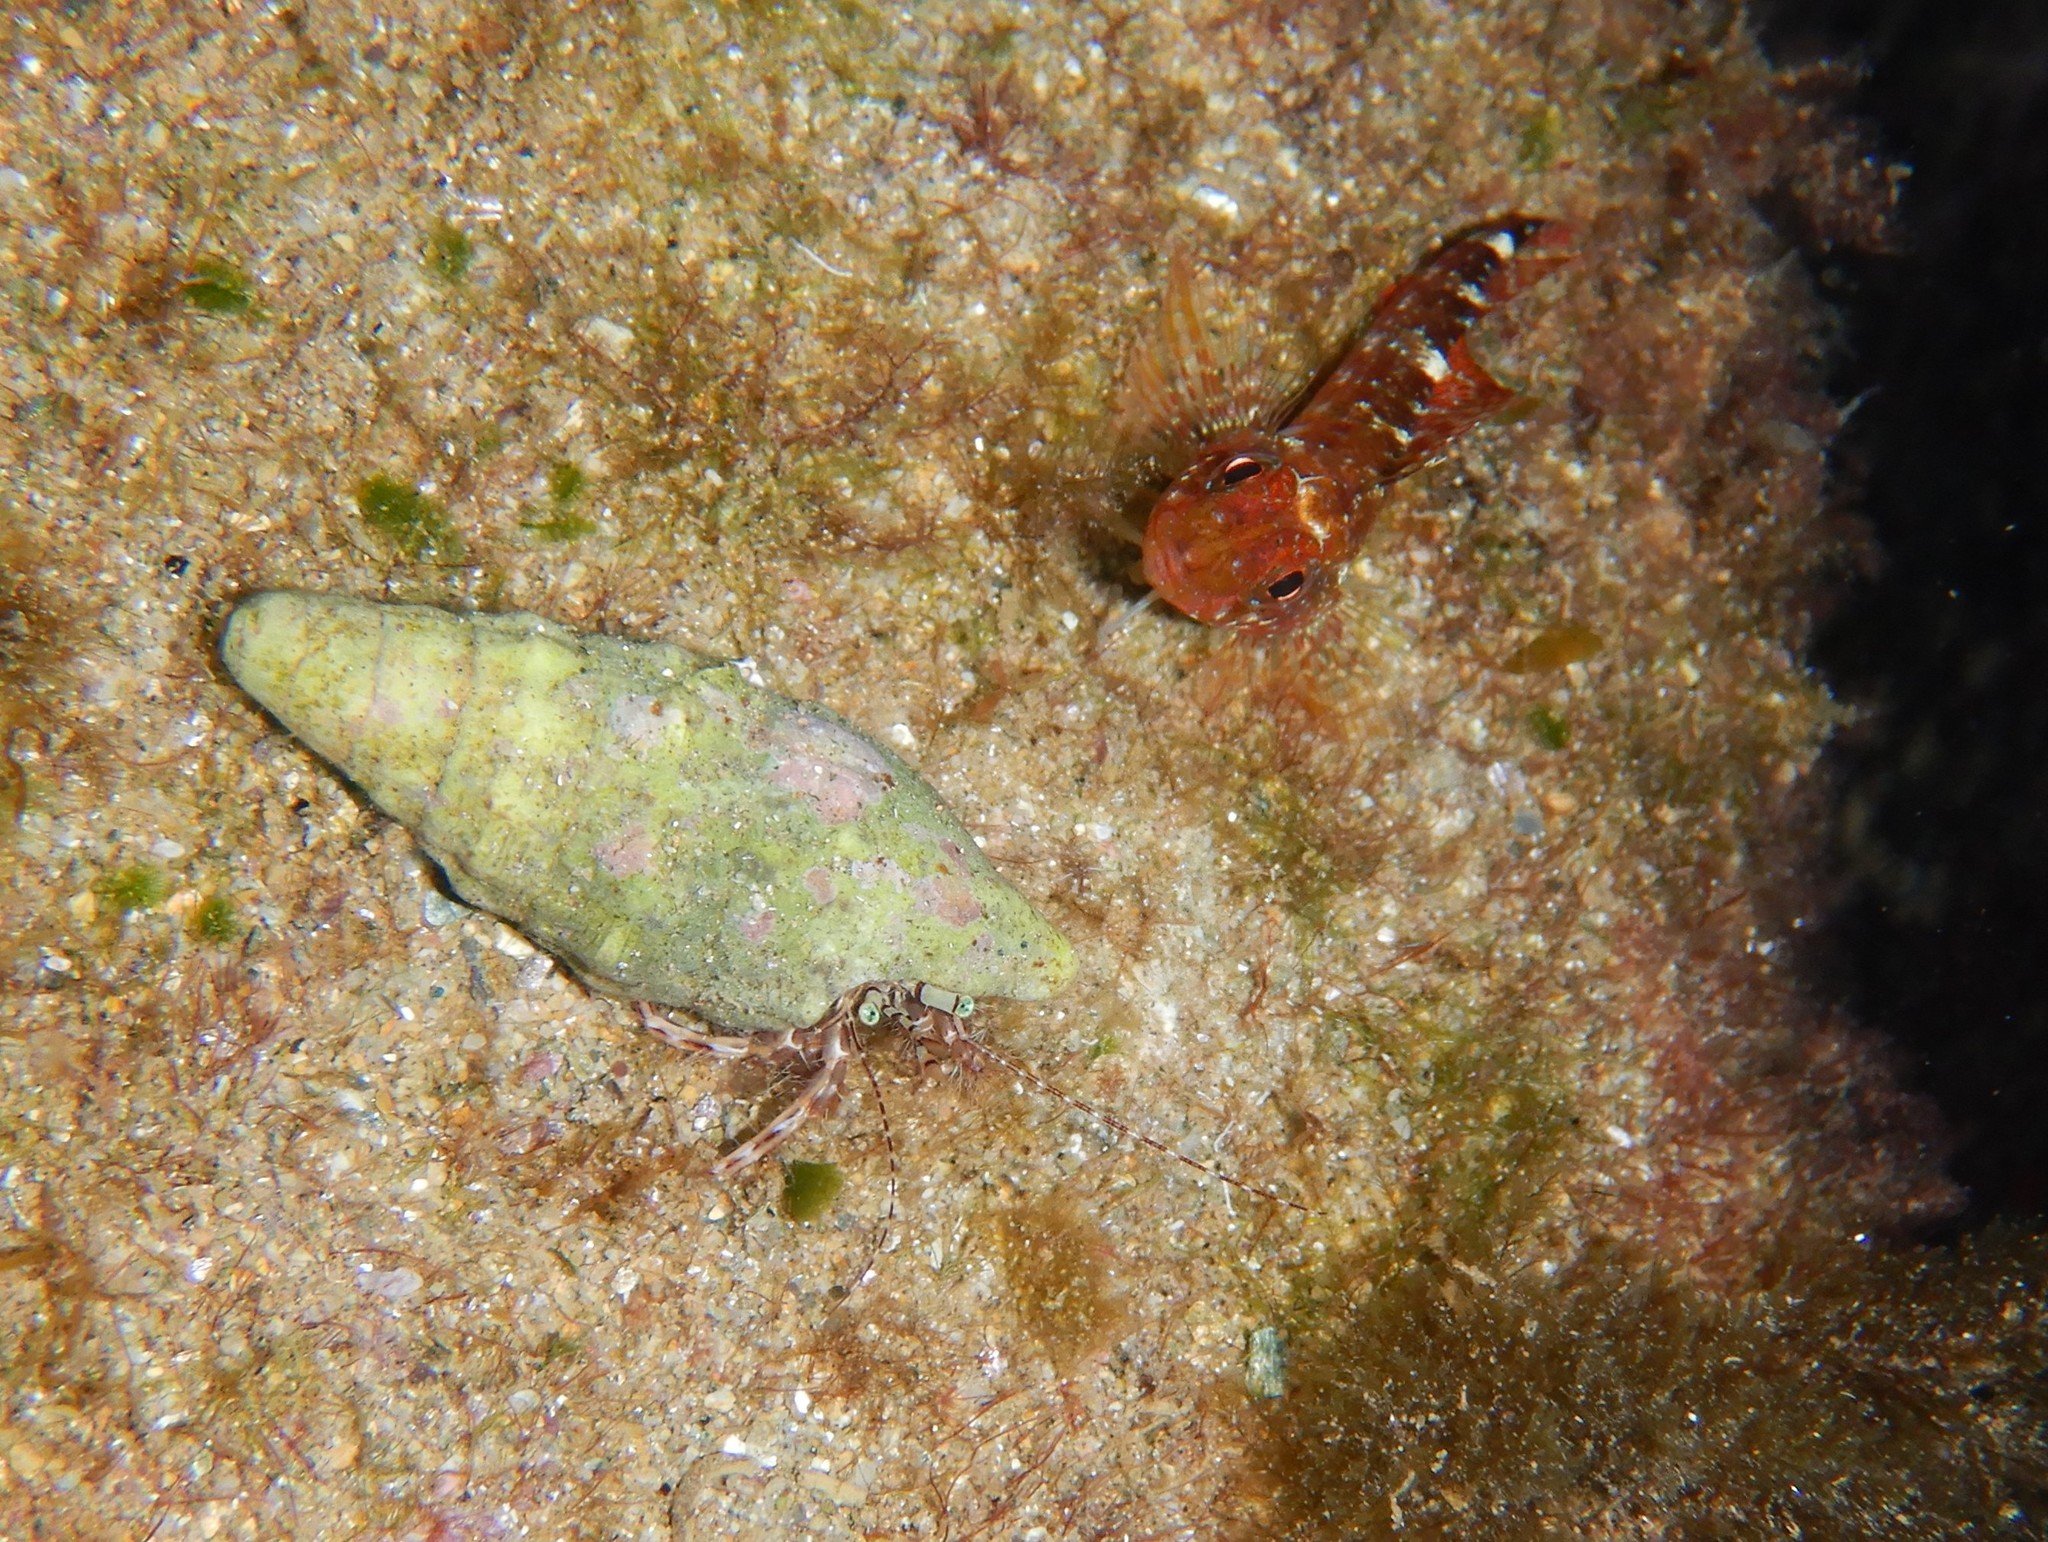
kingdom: Animalia
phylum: Arthropoda
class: Malacostraca
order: Decapoda
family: Paguridae
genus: Pagurus
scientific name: Pagurus anachoretus
